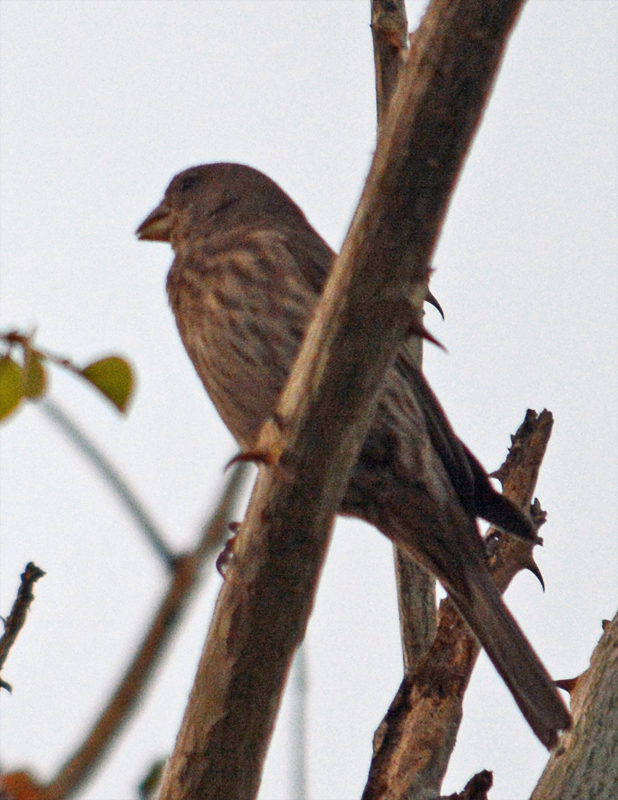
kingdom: Animalia
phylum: Chordata
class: Aves
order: Passeriformes
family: Fringillidae
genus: Haemorhous
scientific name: Haemorhous mexicanus
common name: House finch
